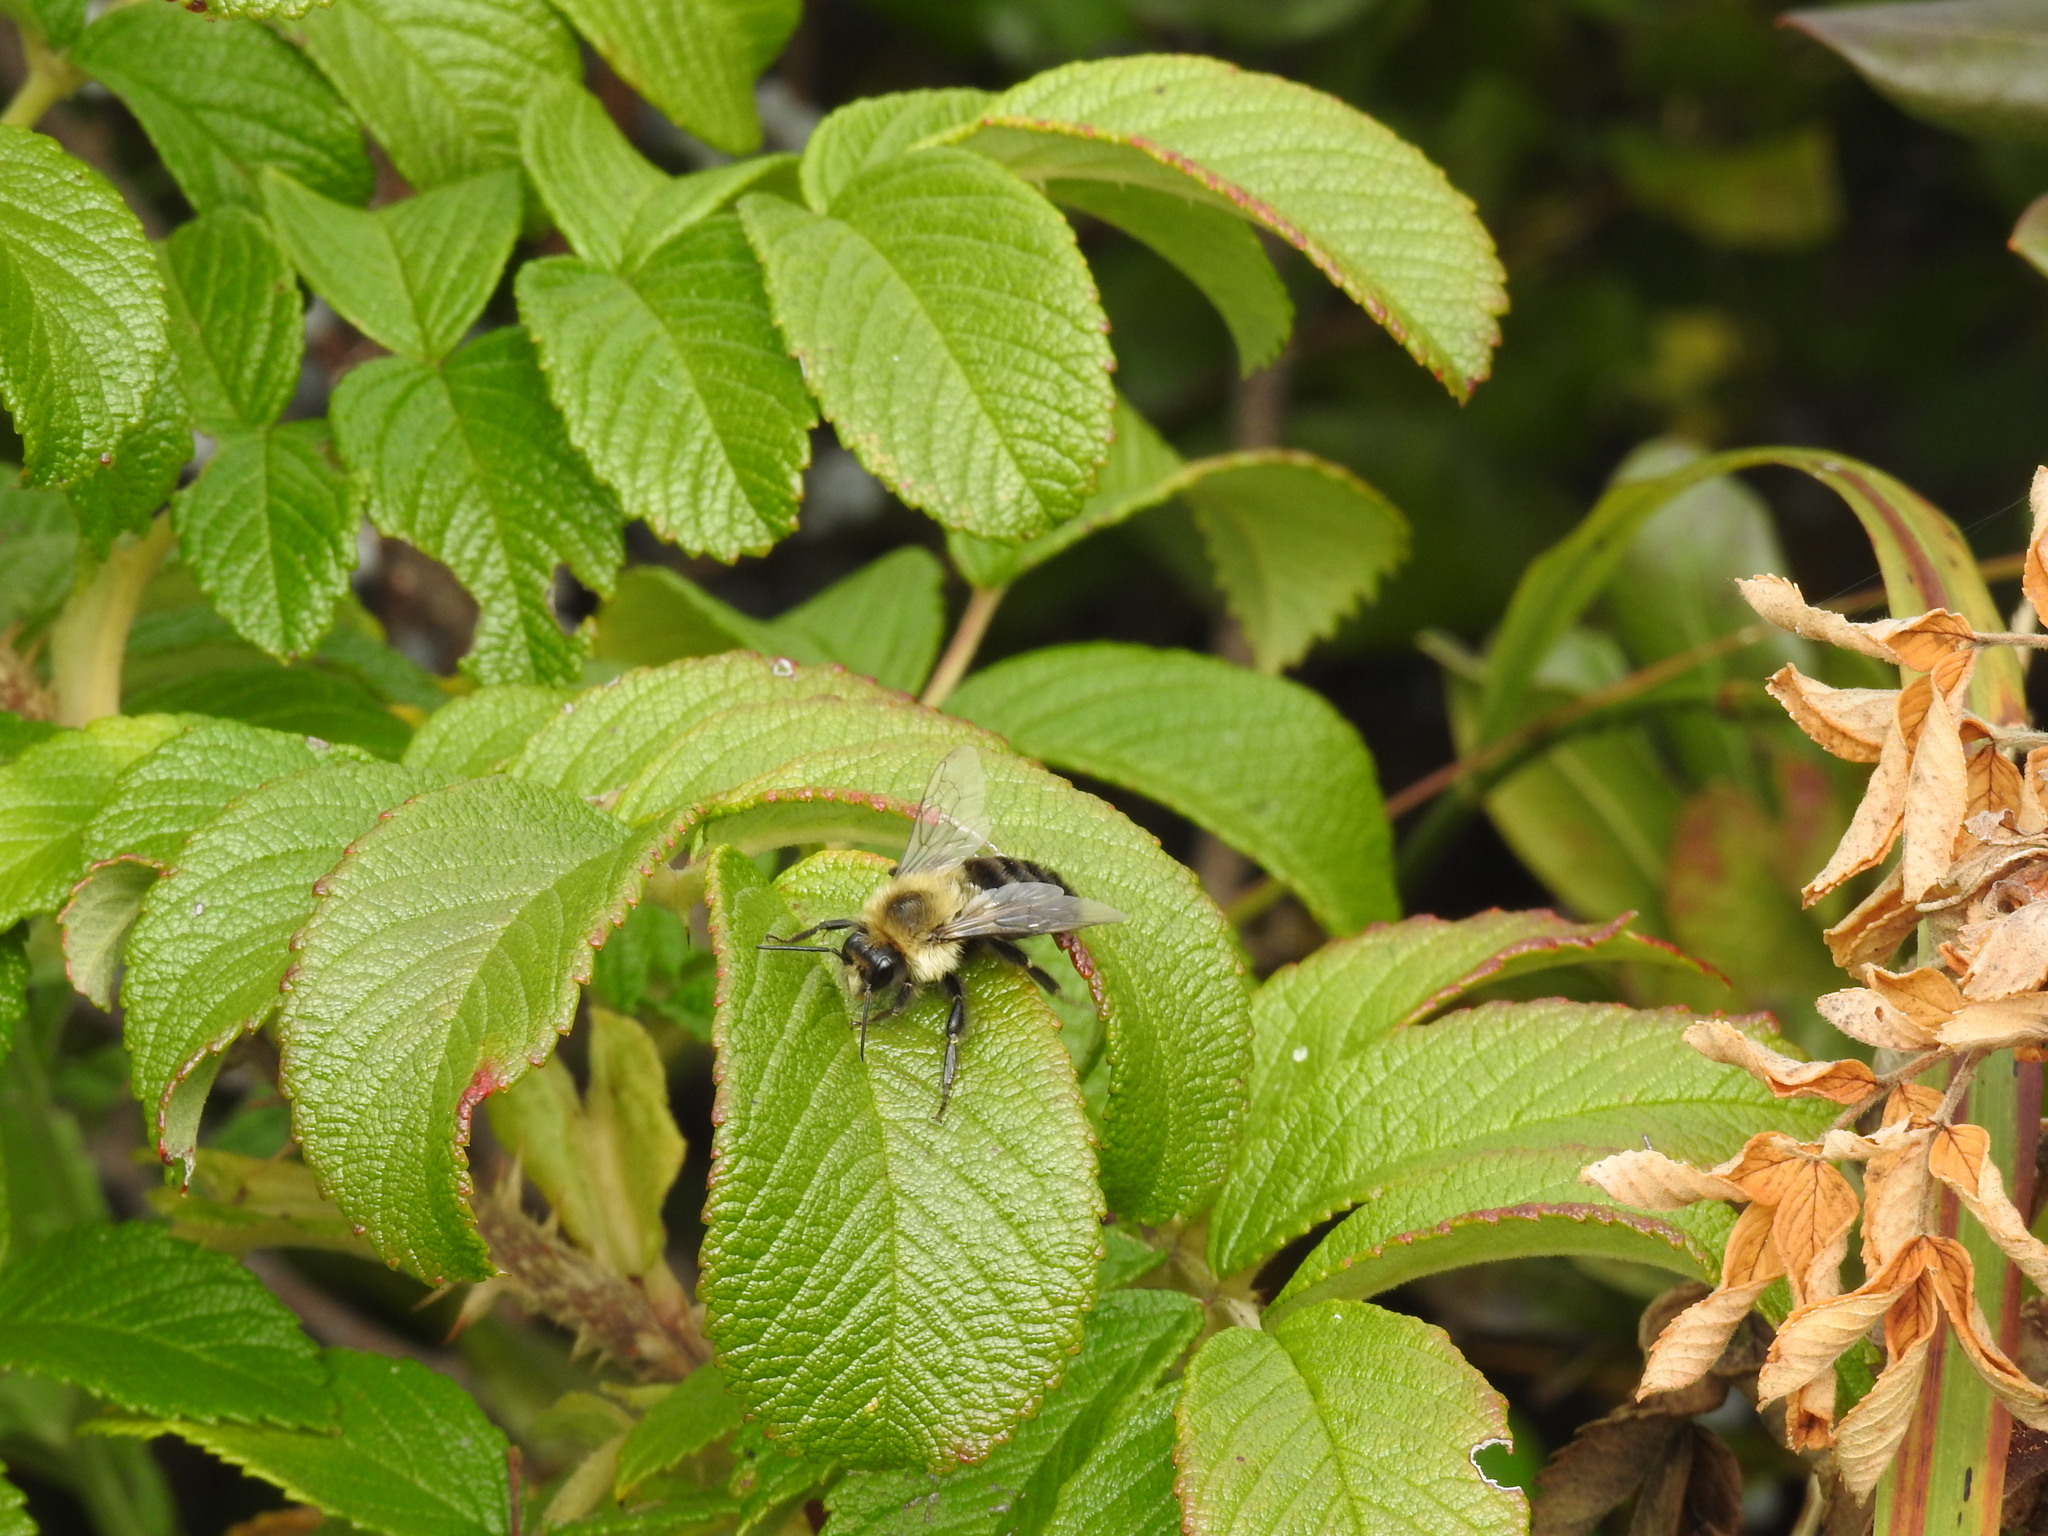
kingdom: Animalia
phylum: Arthropoda
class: Insecta
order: Hymenoptera
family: Apidae
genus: Bombus
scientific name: Bombus impatiens
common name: Common eastern bumble bee
